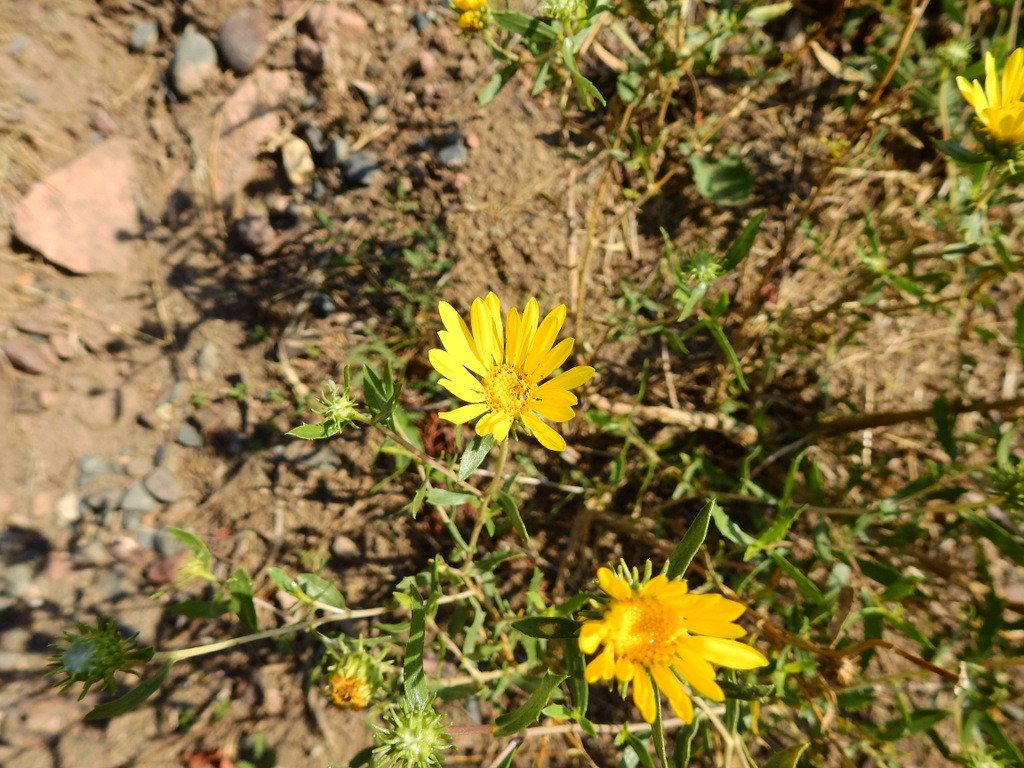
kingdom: Plantae
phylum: Tracheophyta
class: Magnoliopsida
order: Asterales
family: Asteraceae
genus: Grindelia
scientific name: Grindelia pulchella
